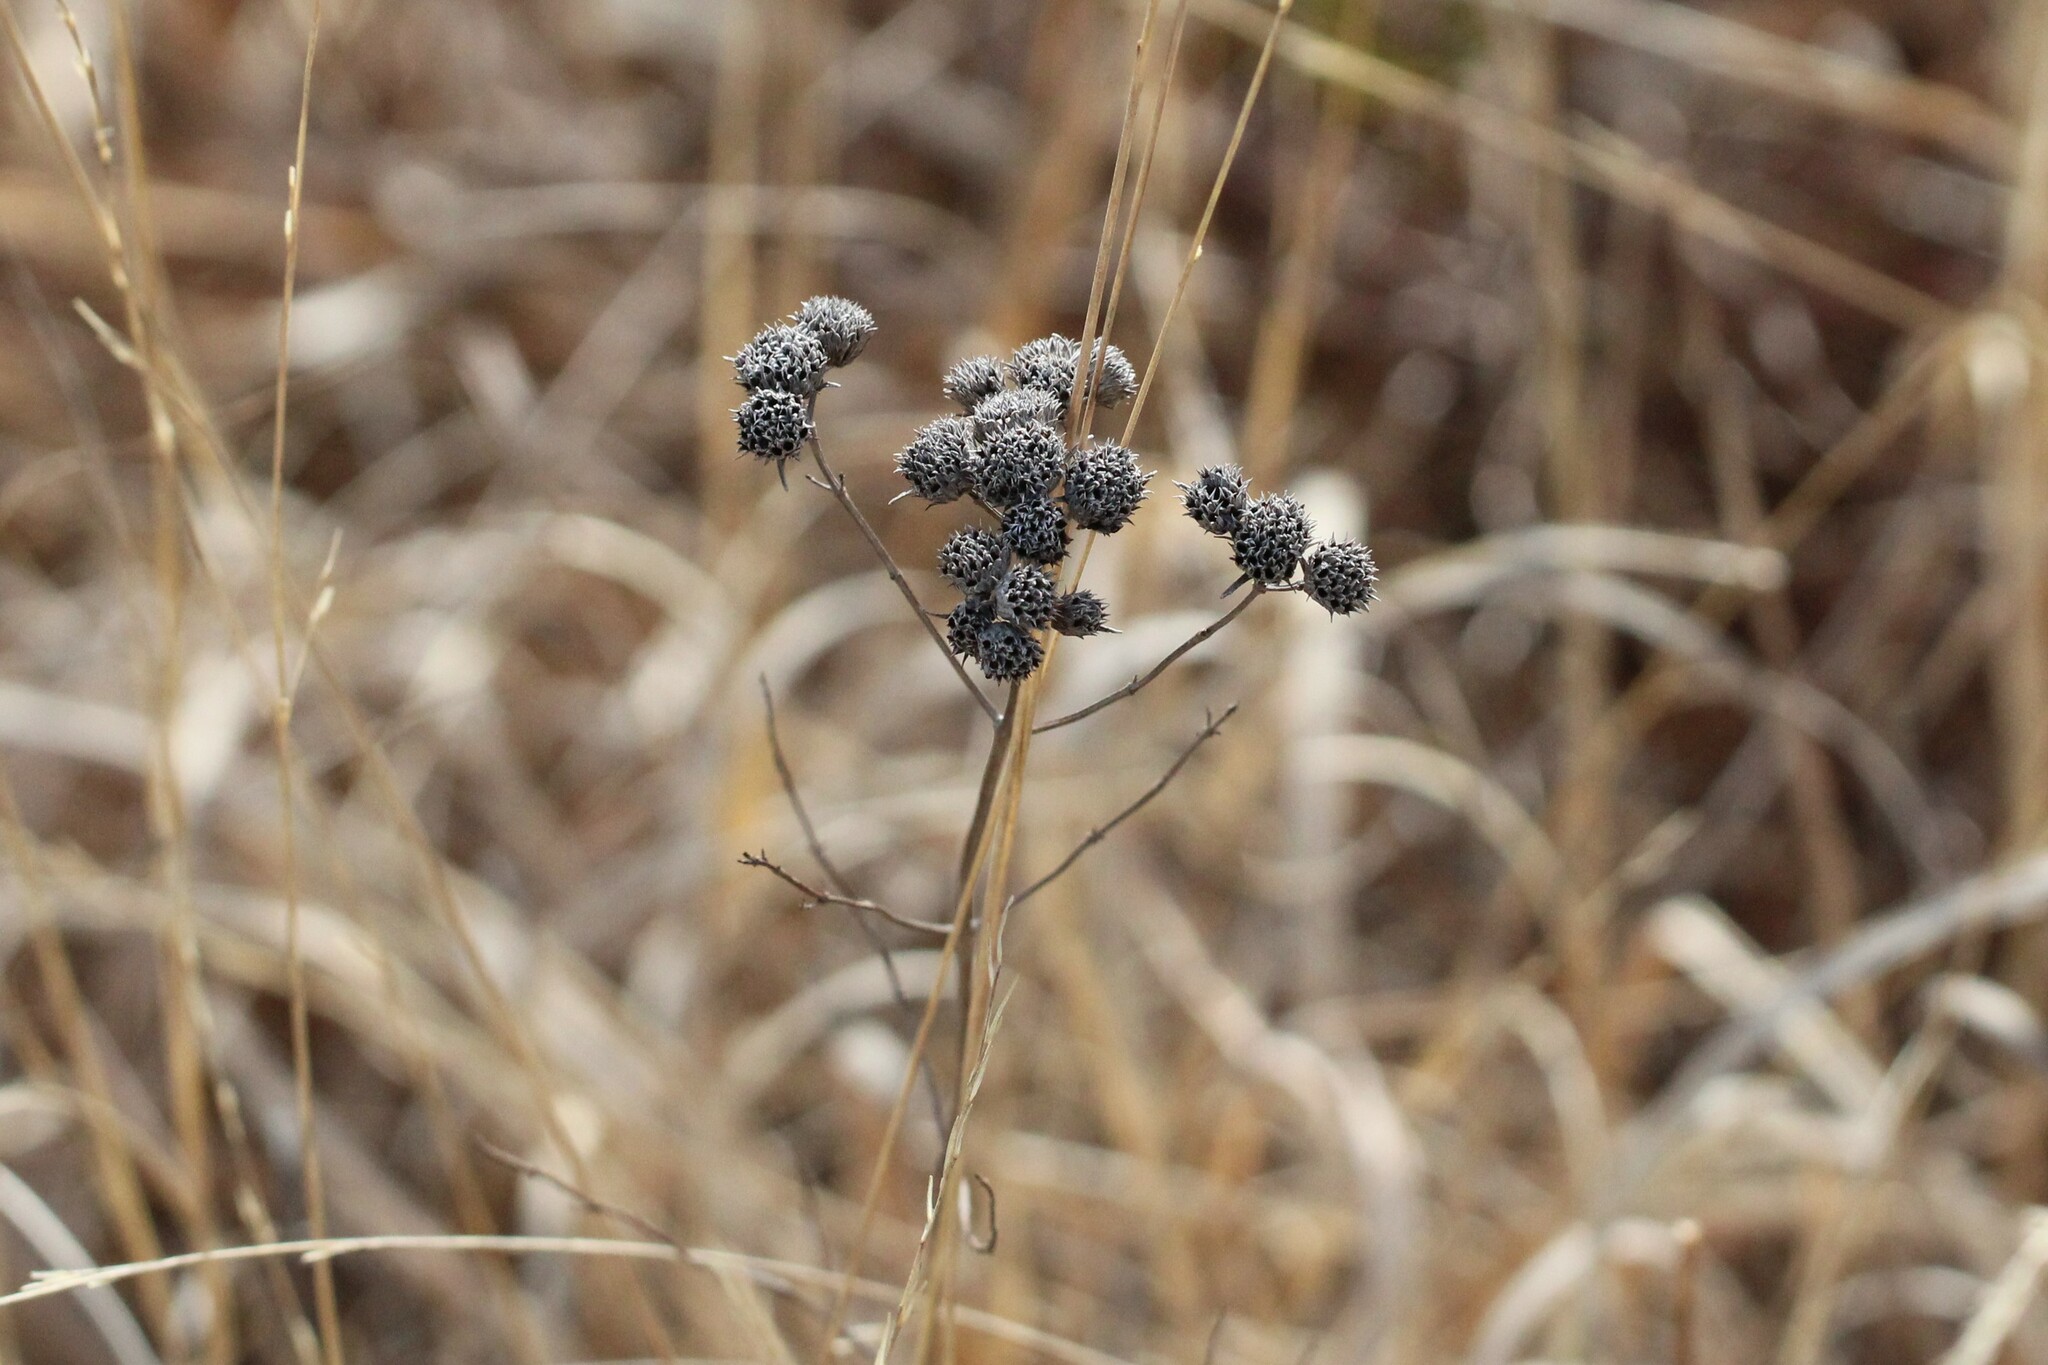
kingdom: Plantae
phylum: Tracheophyta
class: Magnoliopsida
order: Lamiales
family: Lamiaceae
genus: Pycnanthemum
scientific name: Pycnanthemum tenuifolium
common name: Narrow-leaf mountain-mint
